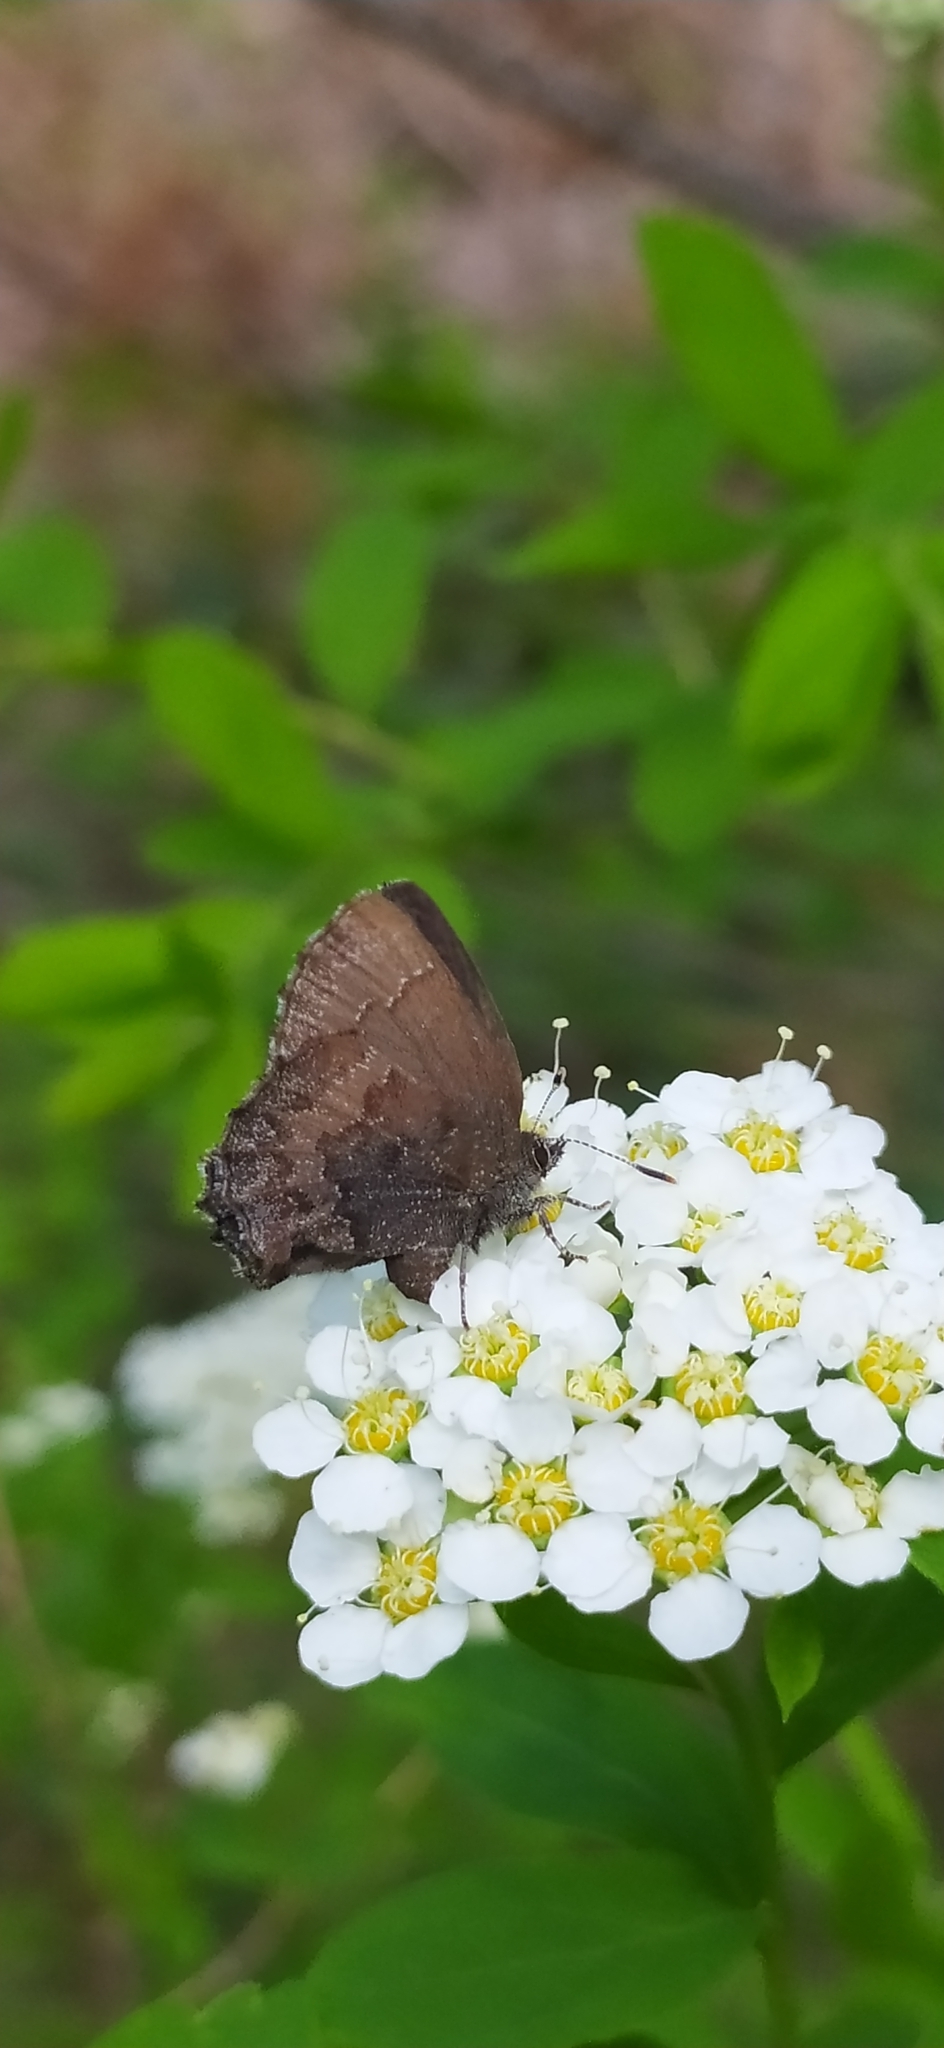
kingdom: Animalia
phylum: Arthropoda
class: Insecta
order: Lepidoptera
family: Lycaenidae
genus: Ginzia
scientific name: Ginzia Ahlbergia frivaldszkyi
